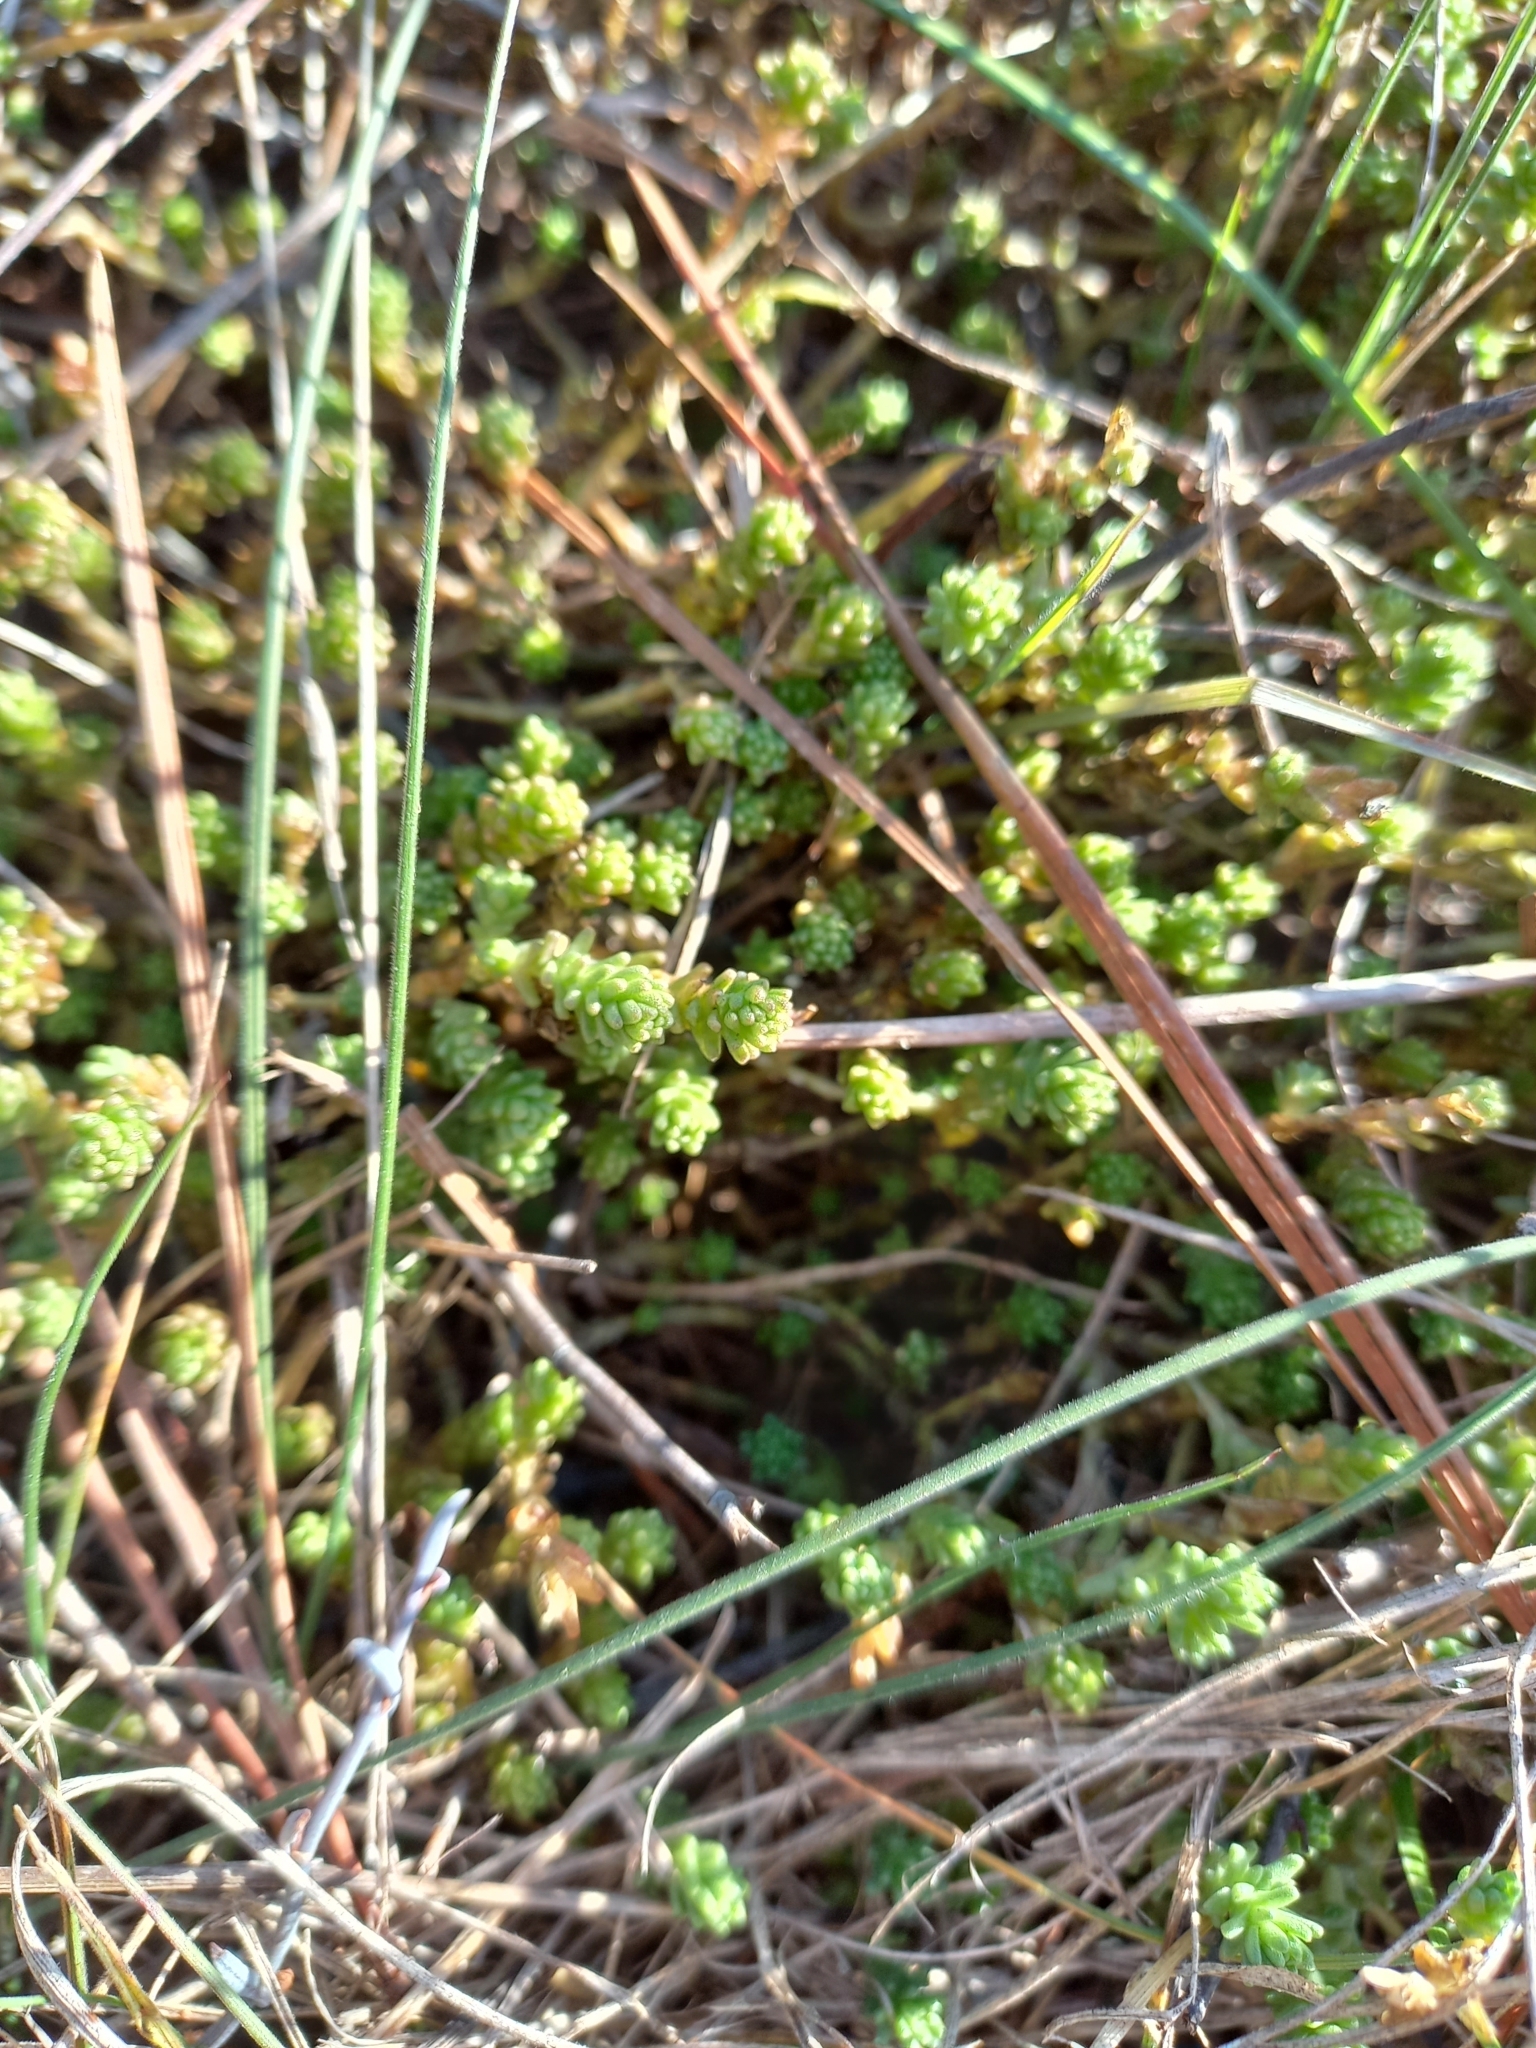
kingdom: Plantae
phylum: Tracheophyta
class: Magnoliopsida
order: Saxifragales
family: Crassulaceae
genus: Sedum
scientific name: Sedum acre
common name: Biting stonecrop
